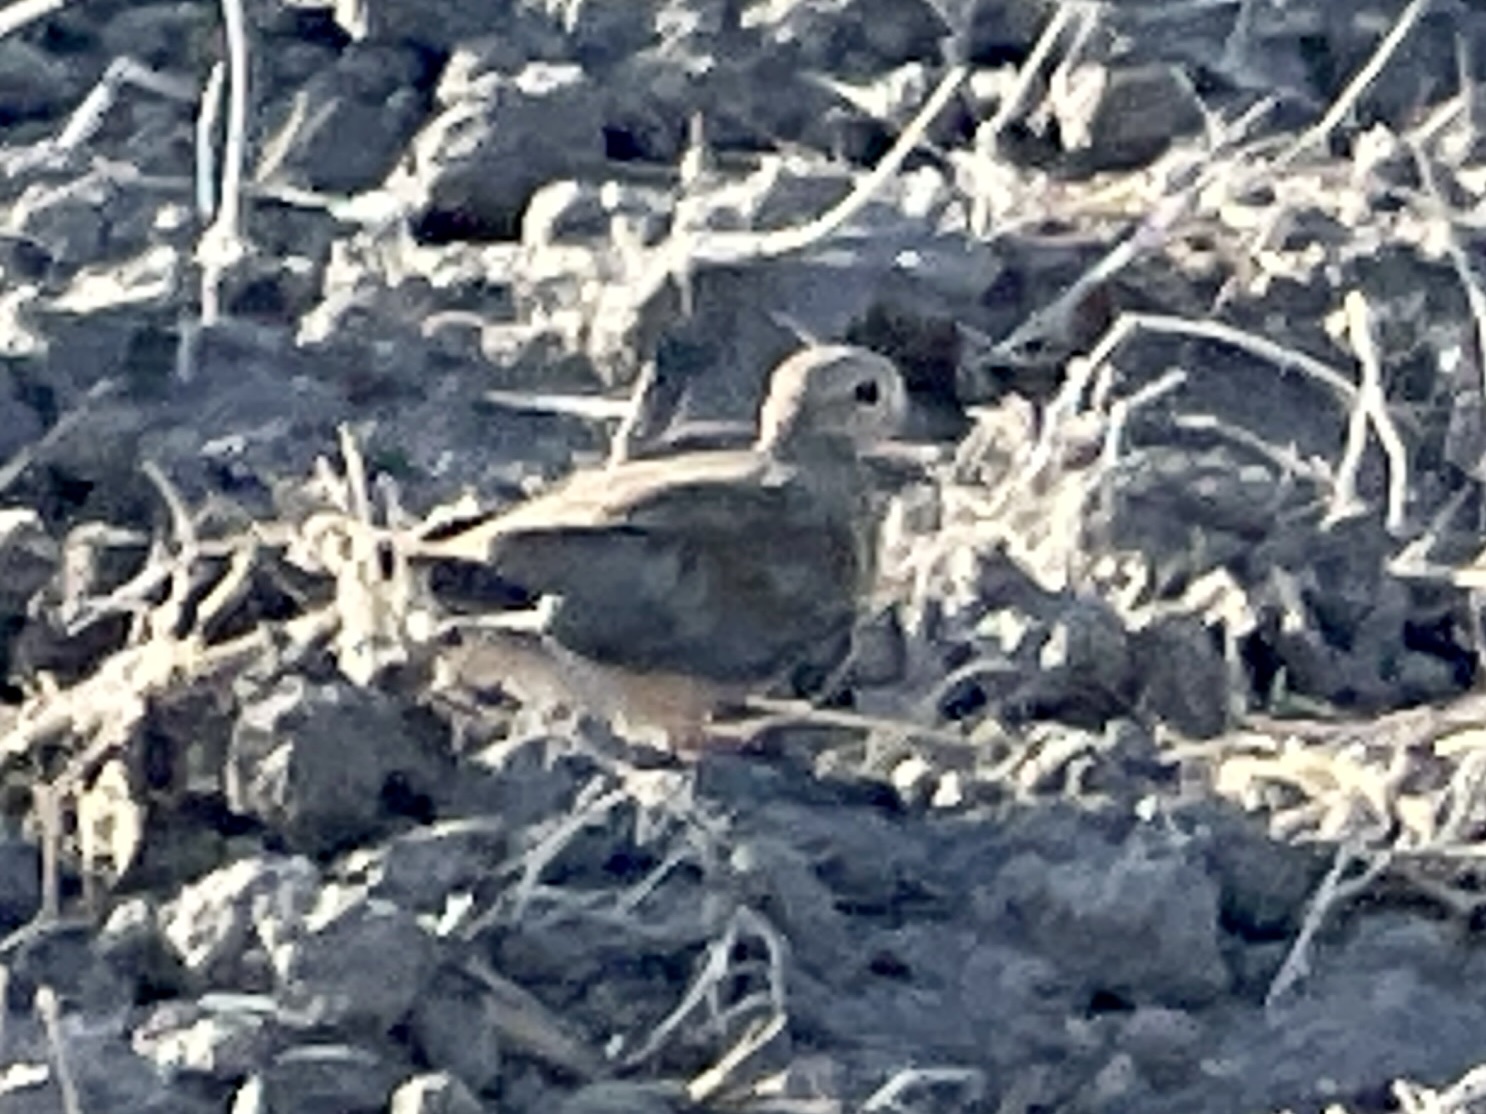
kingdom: Animalia
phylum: Chordata
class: Aves
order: Columbiformes
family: Columbidae
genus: Zenaida
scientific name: Zenaida macroura
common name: Mourning dove
